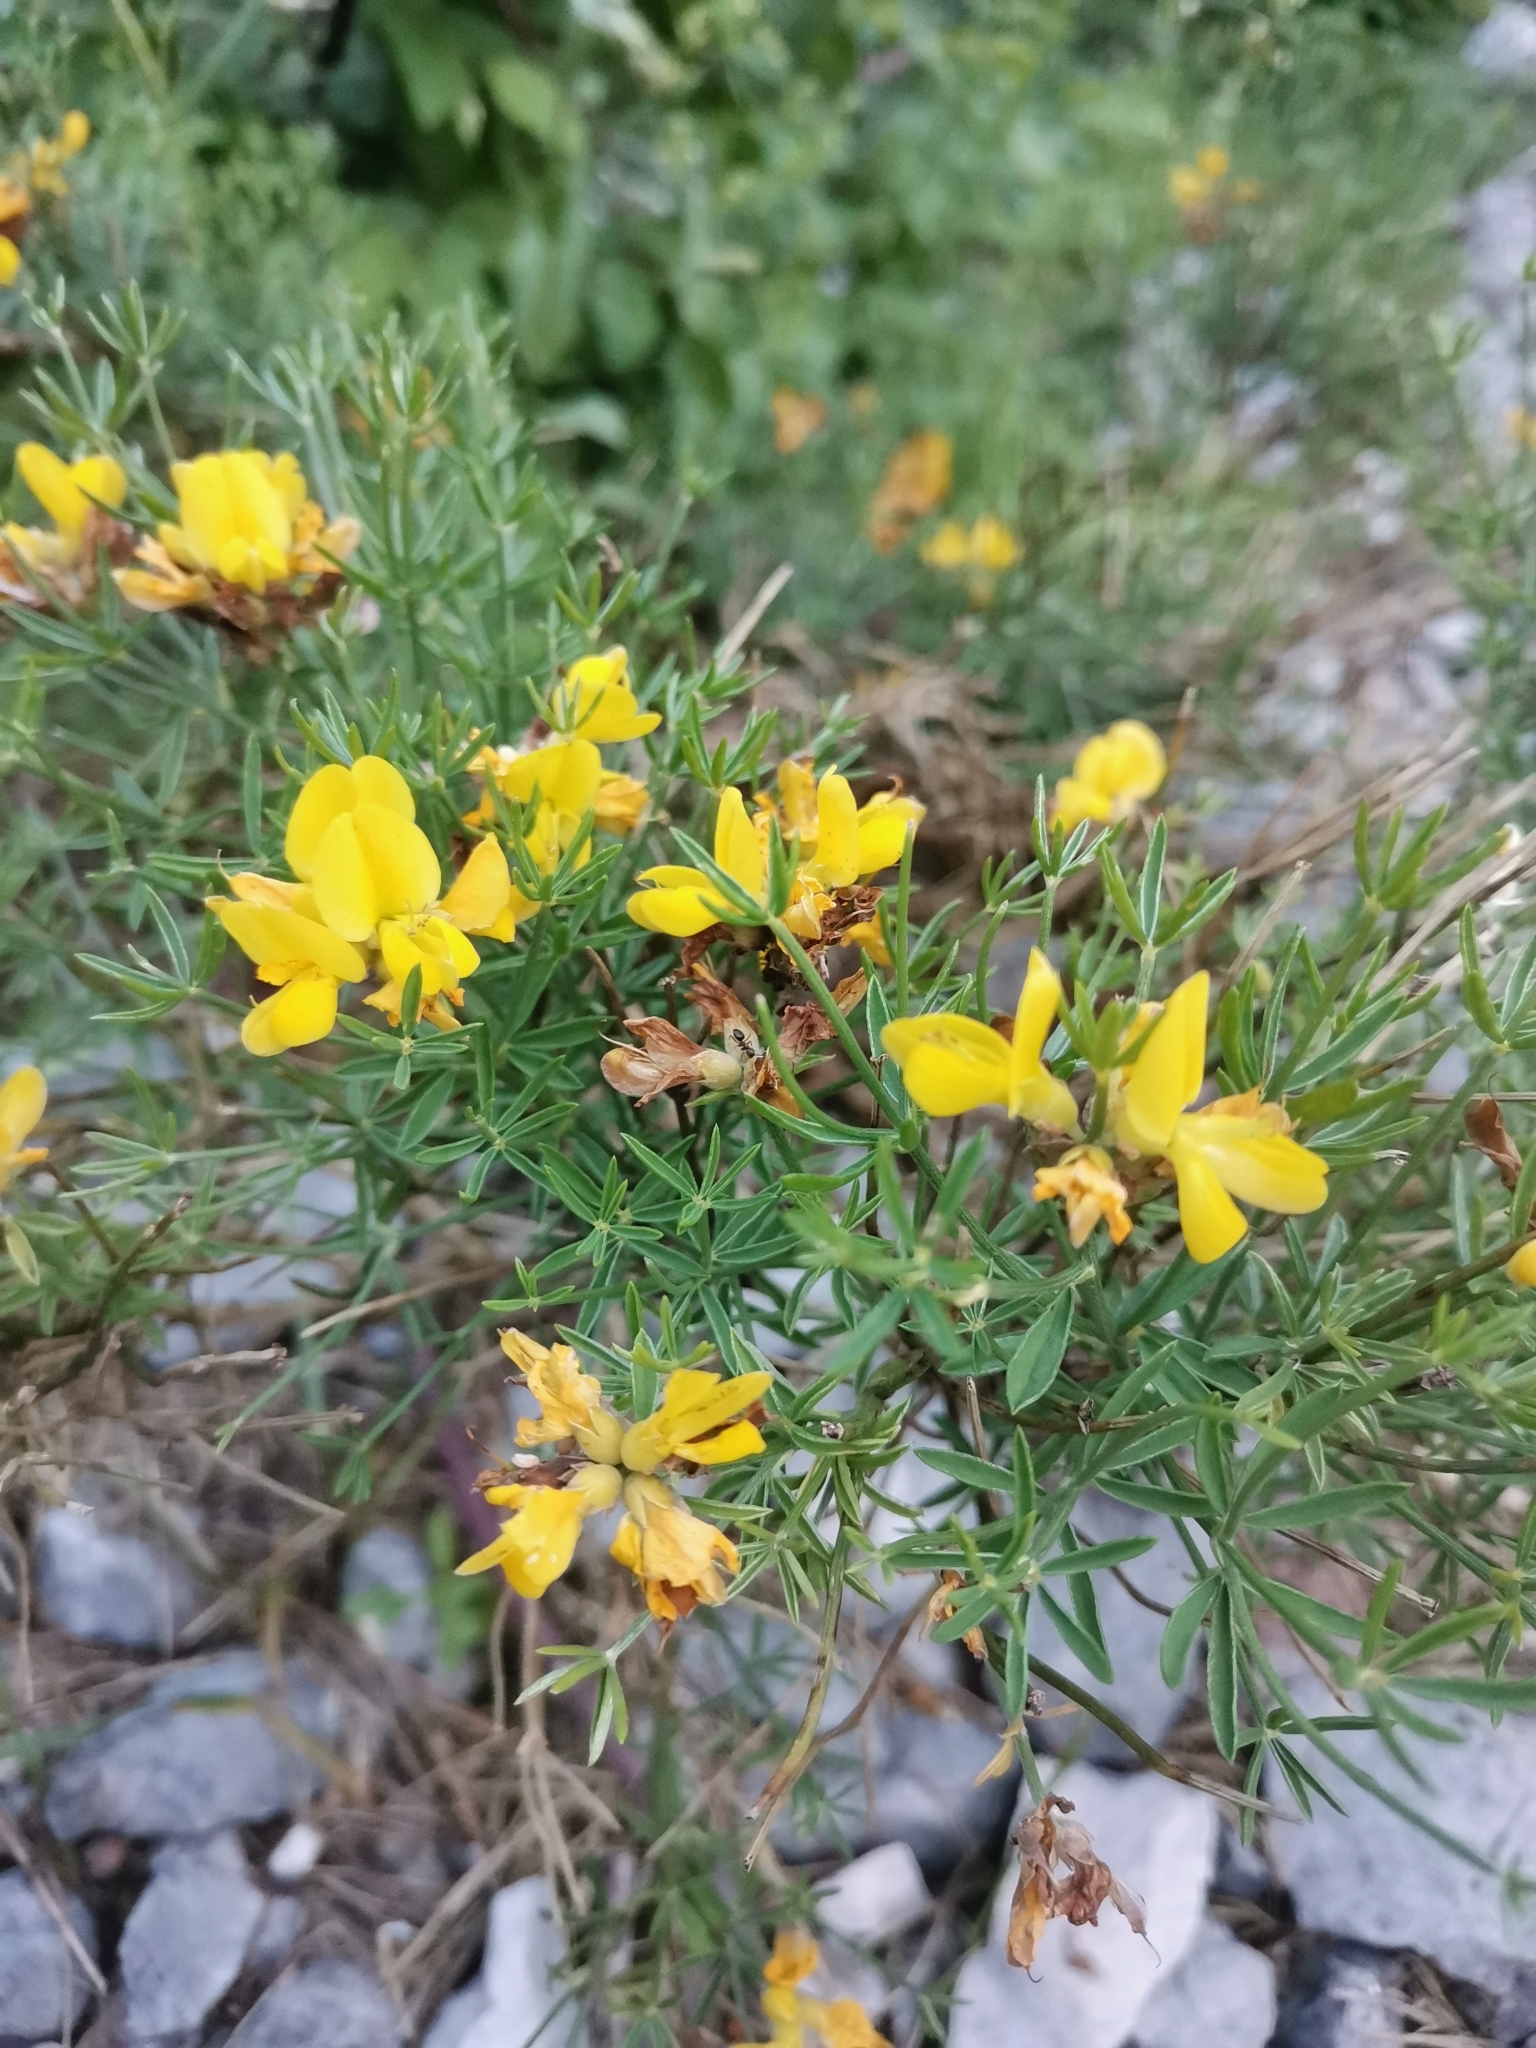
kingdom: Plantae
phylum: Tracheophyta
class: Magnoliopsida
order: Fabales
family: Fabaceae
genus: Genista
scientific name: Genista radiata
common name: Southern greenweed
